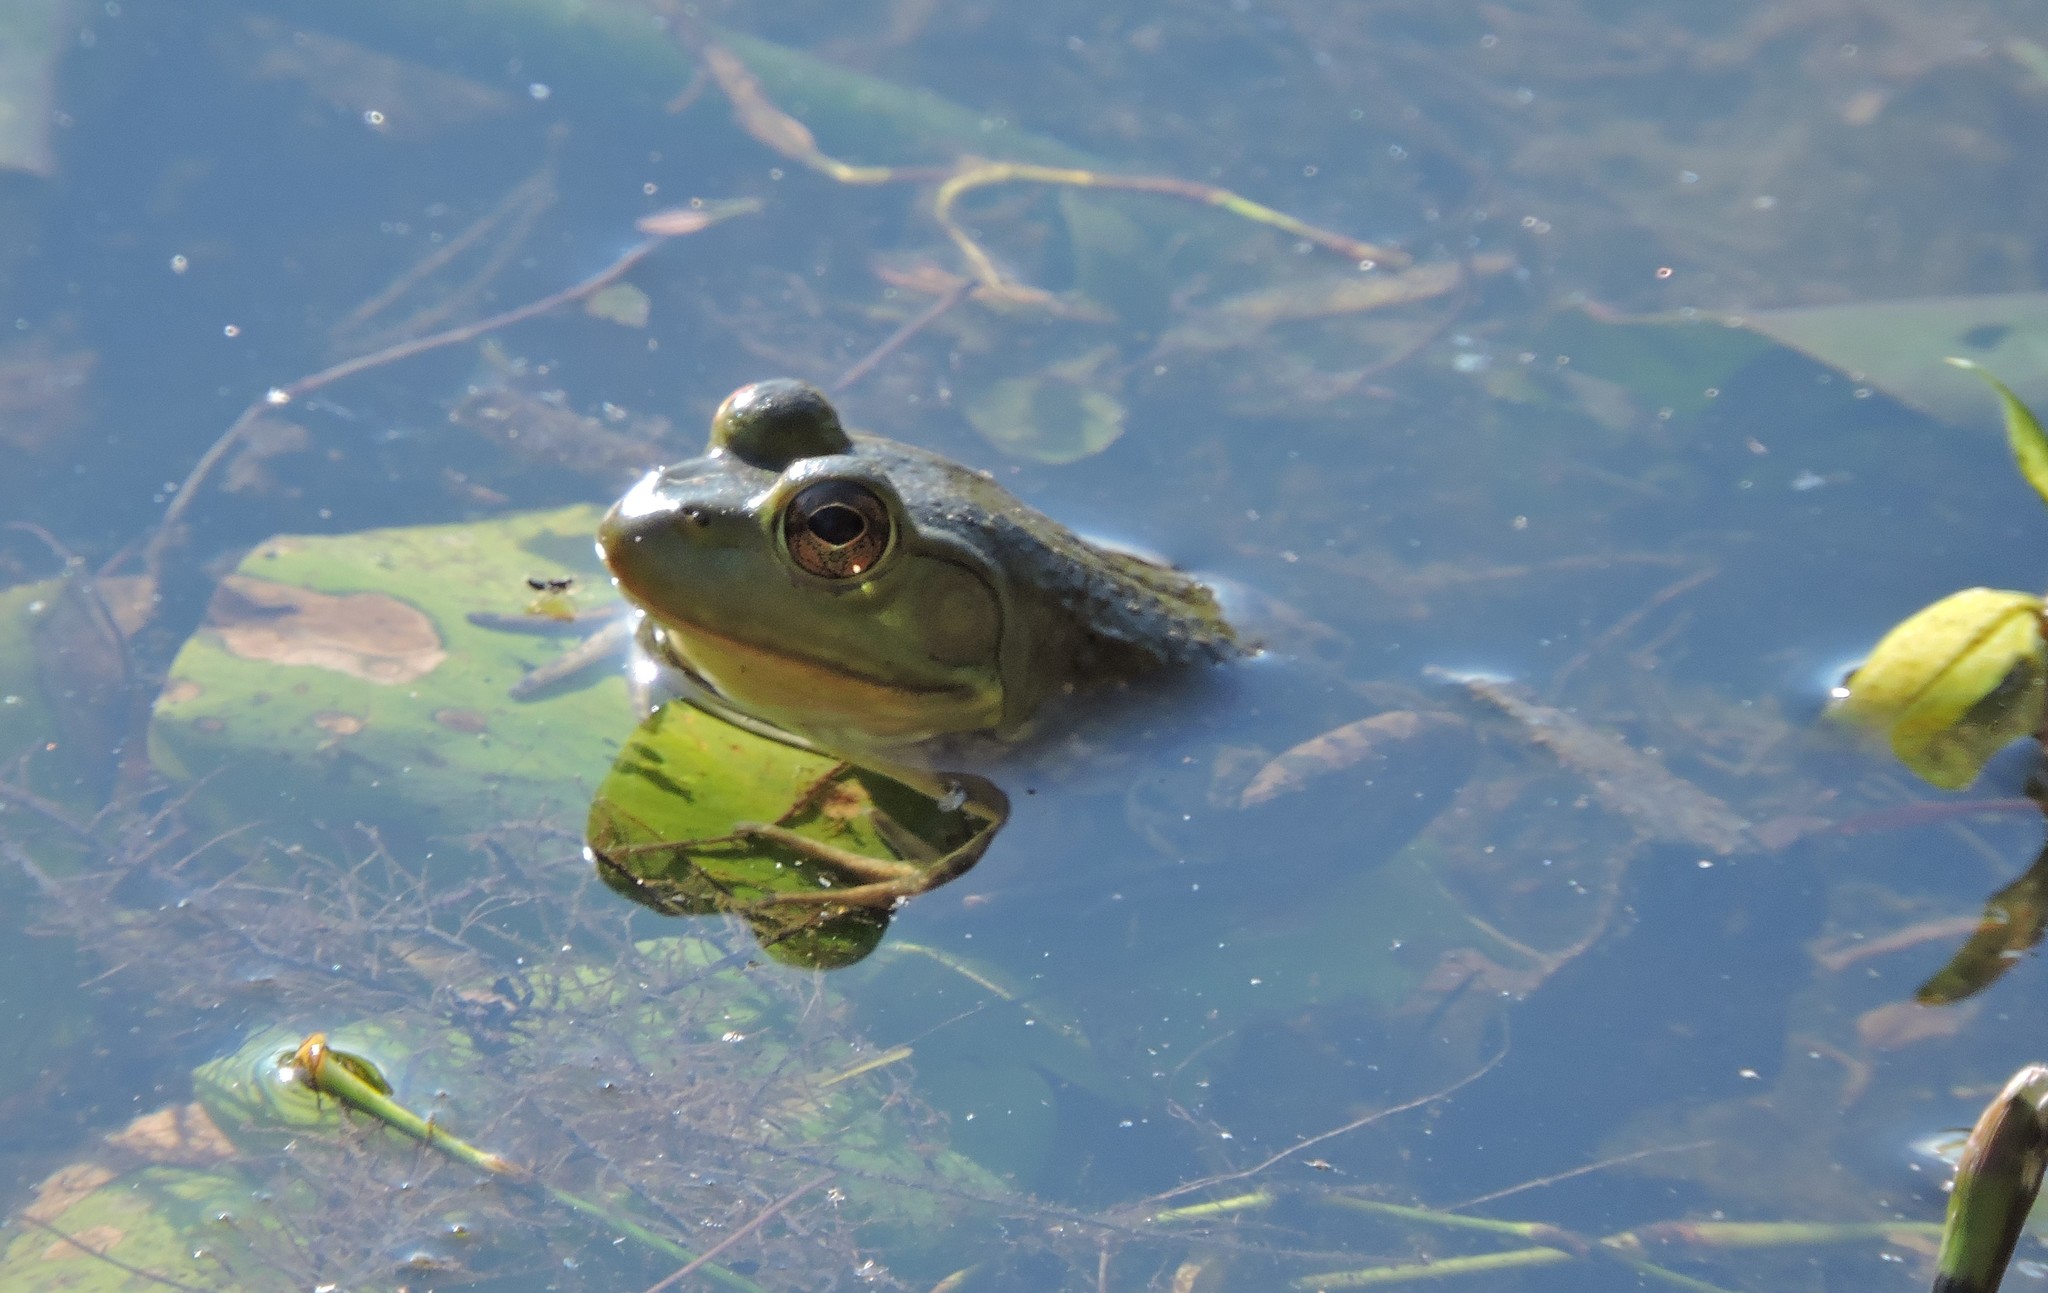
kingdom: Animalia
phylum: Chordata
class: Amphibia
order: Anura
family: Ranidae
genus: Lithobates
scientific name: Lithobates catesbeianus
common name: American bullfrog
